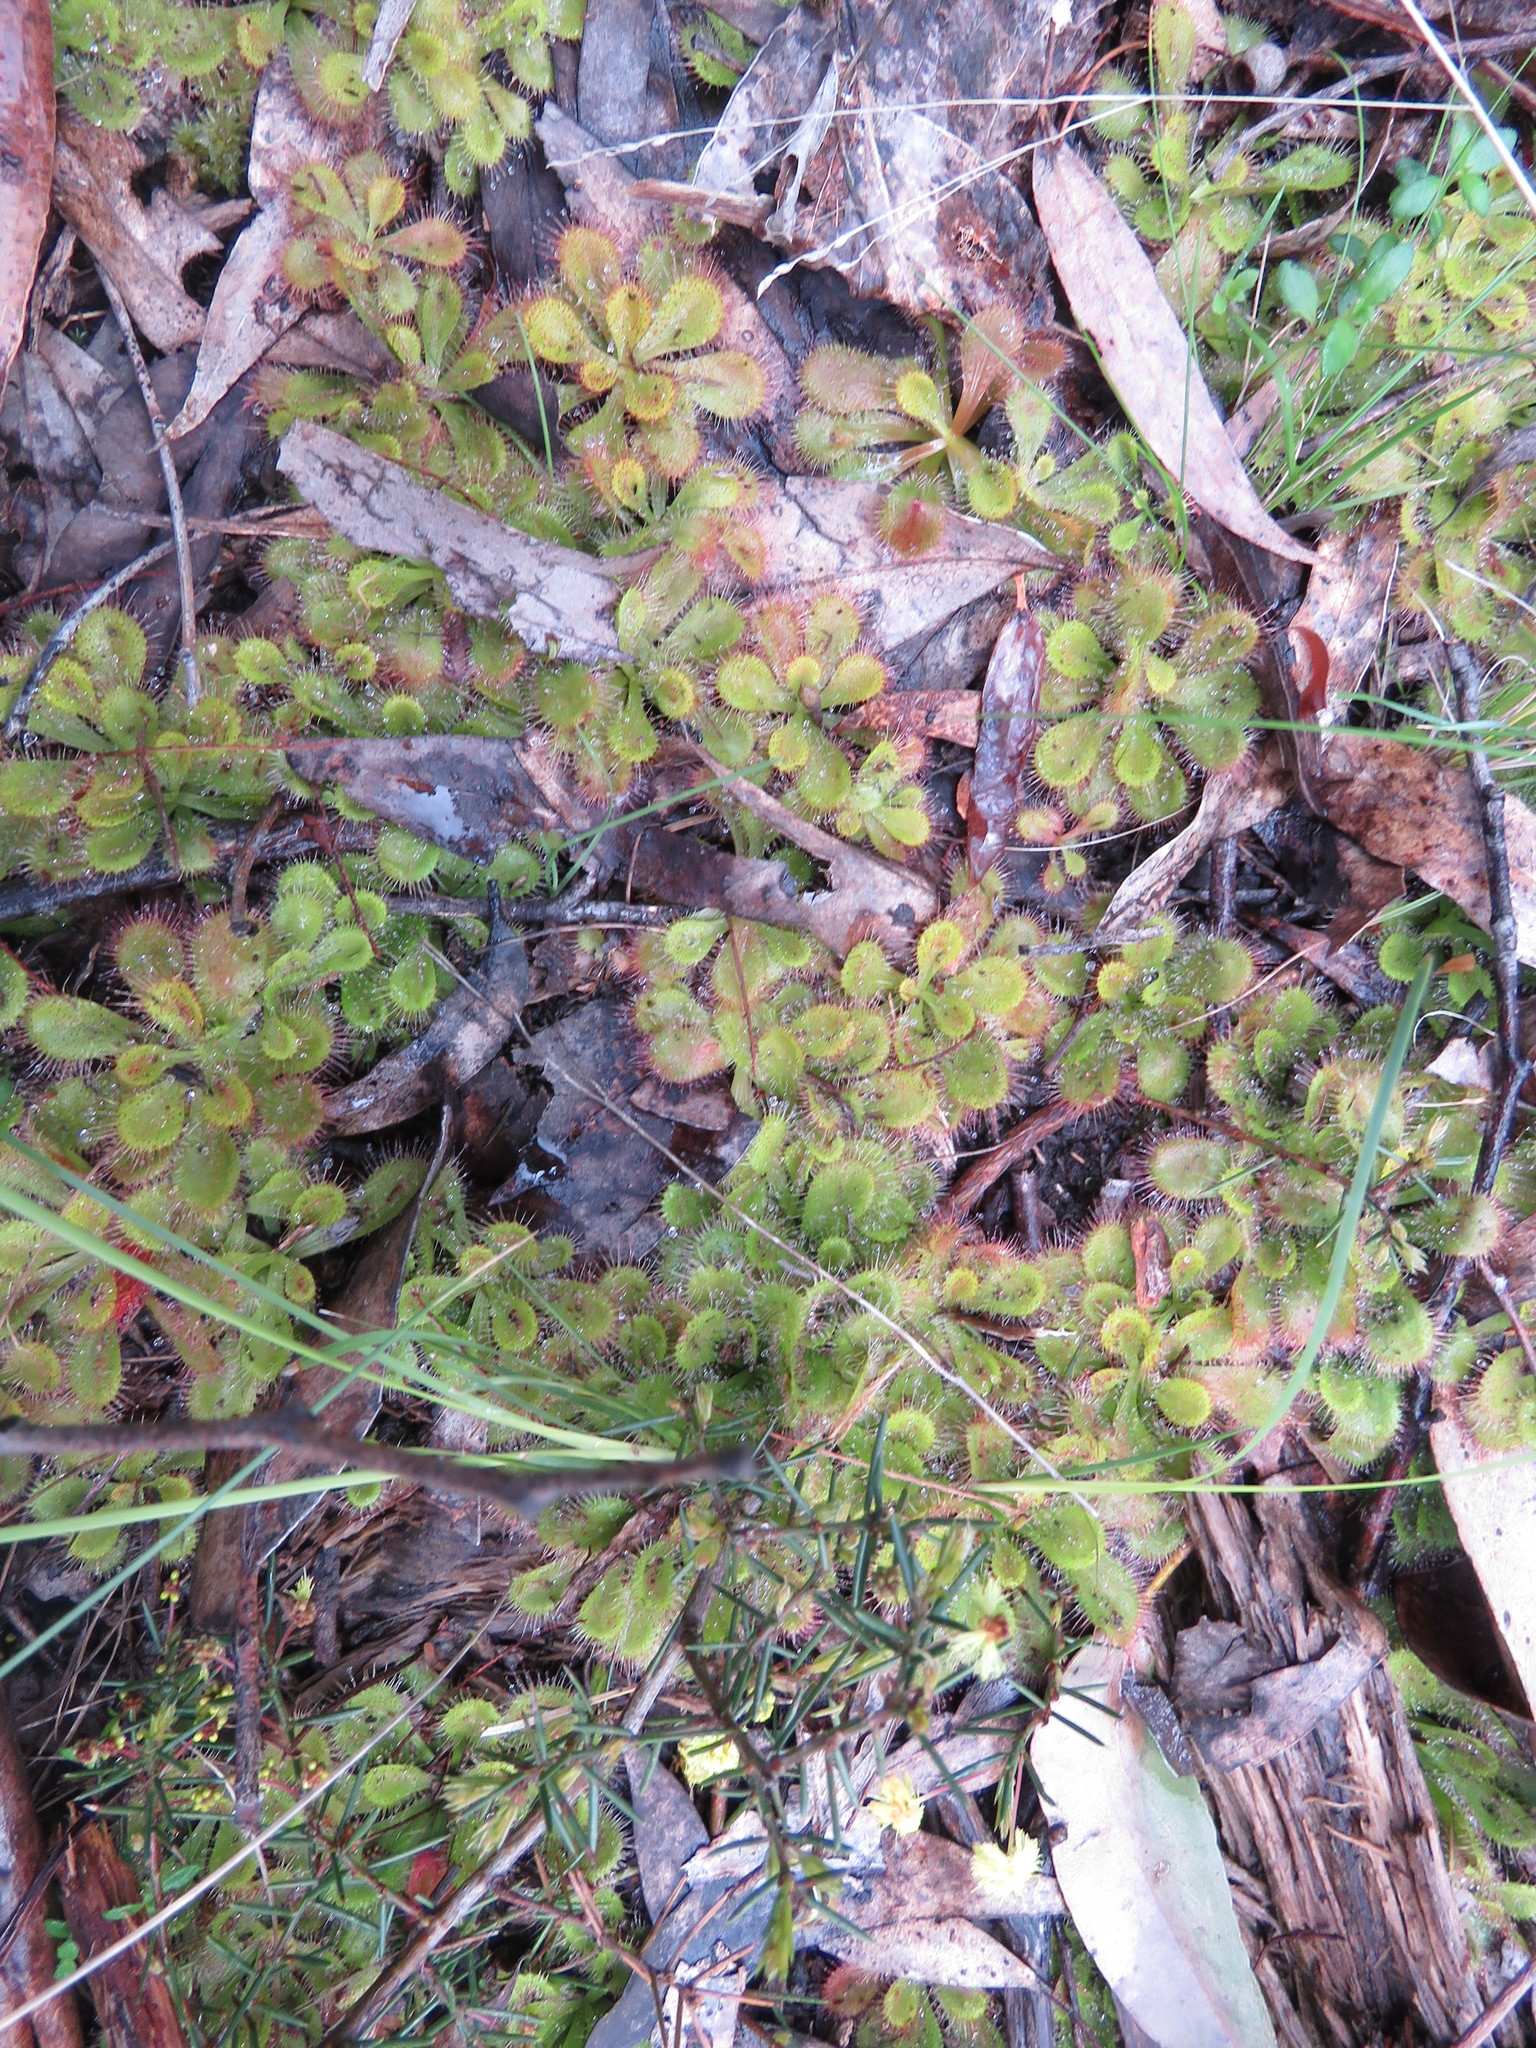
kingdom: Plantae
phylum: Tracheophyta
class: Magnoliopsida
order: Caryophyllales
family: Droseraceae
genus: Drosera
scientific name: Drosera aberrans
